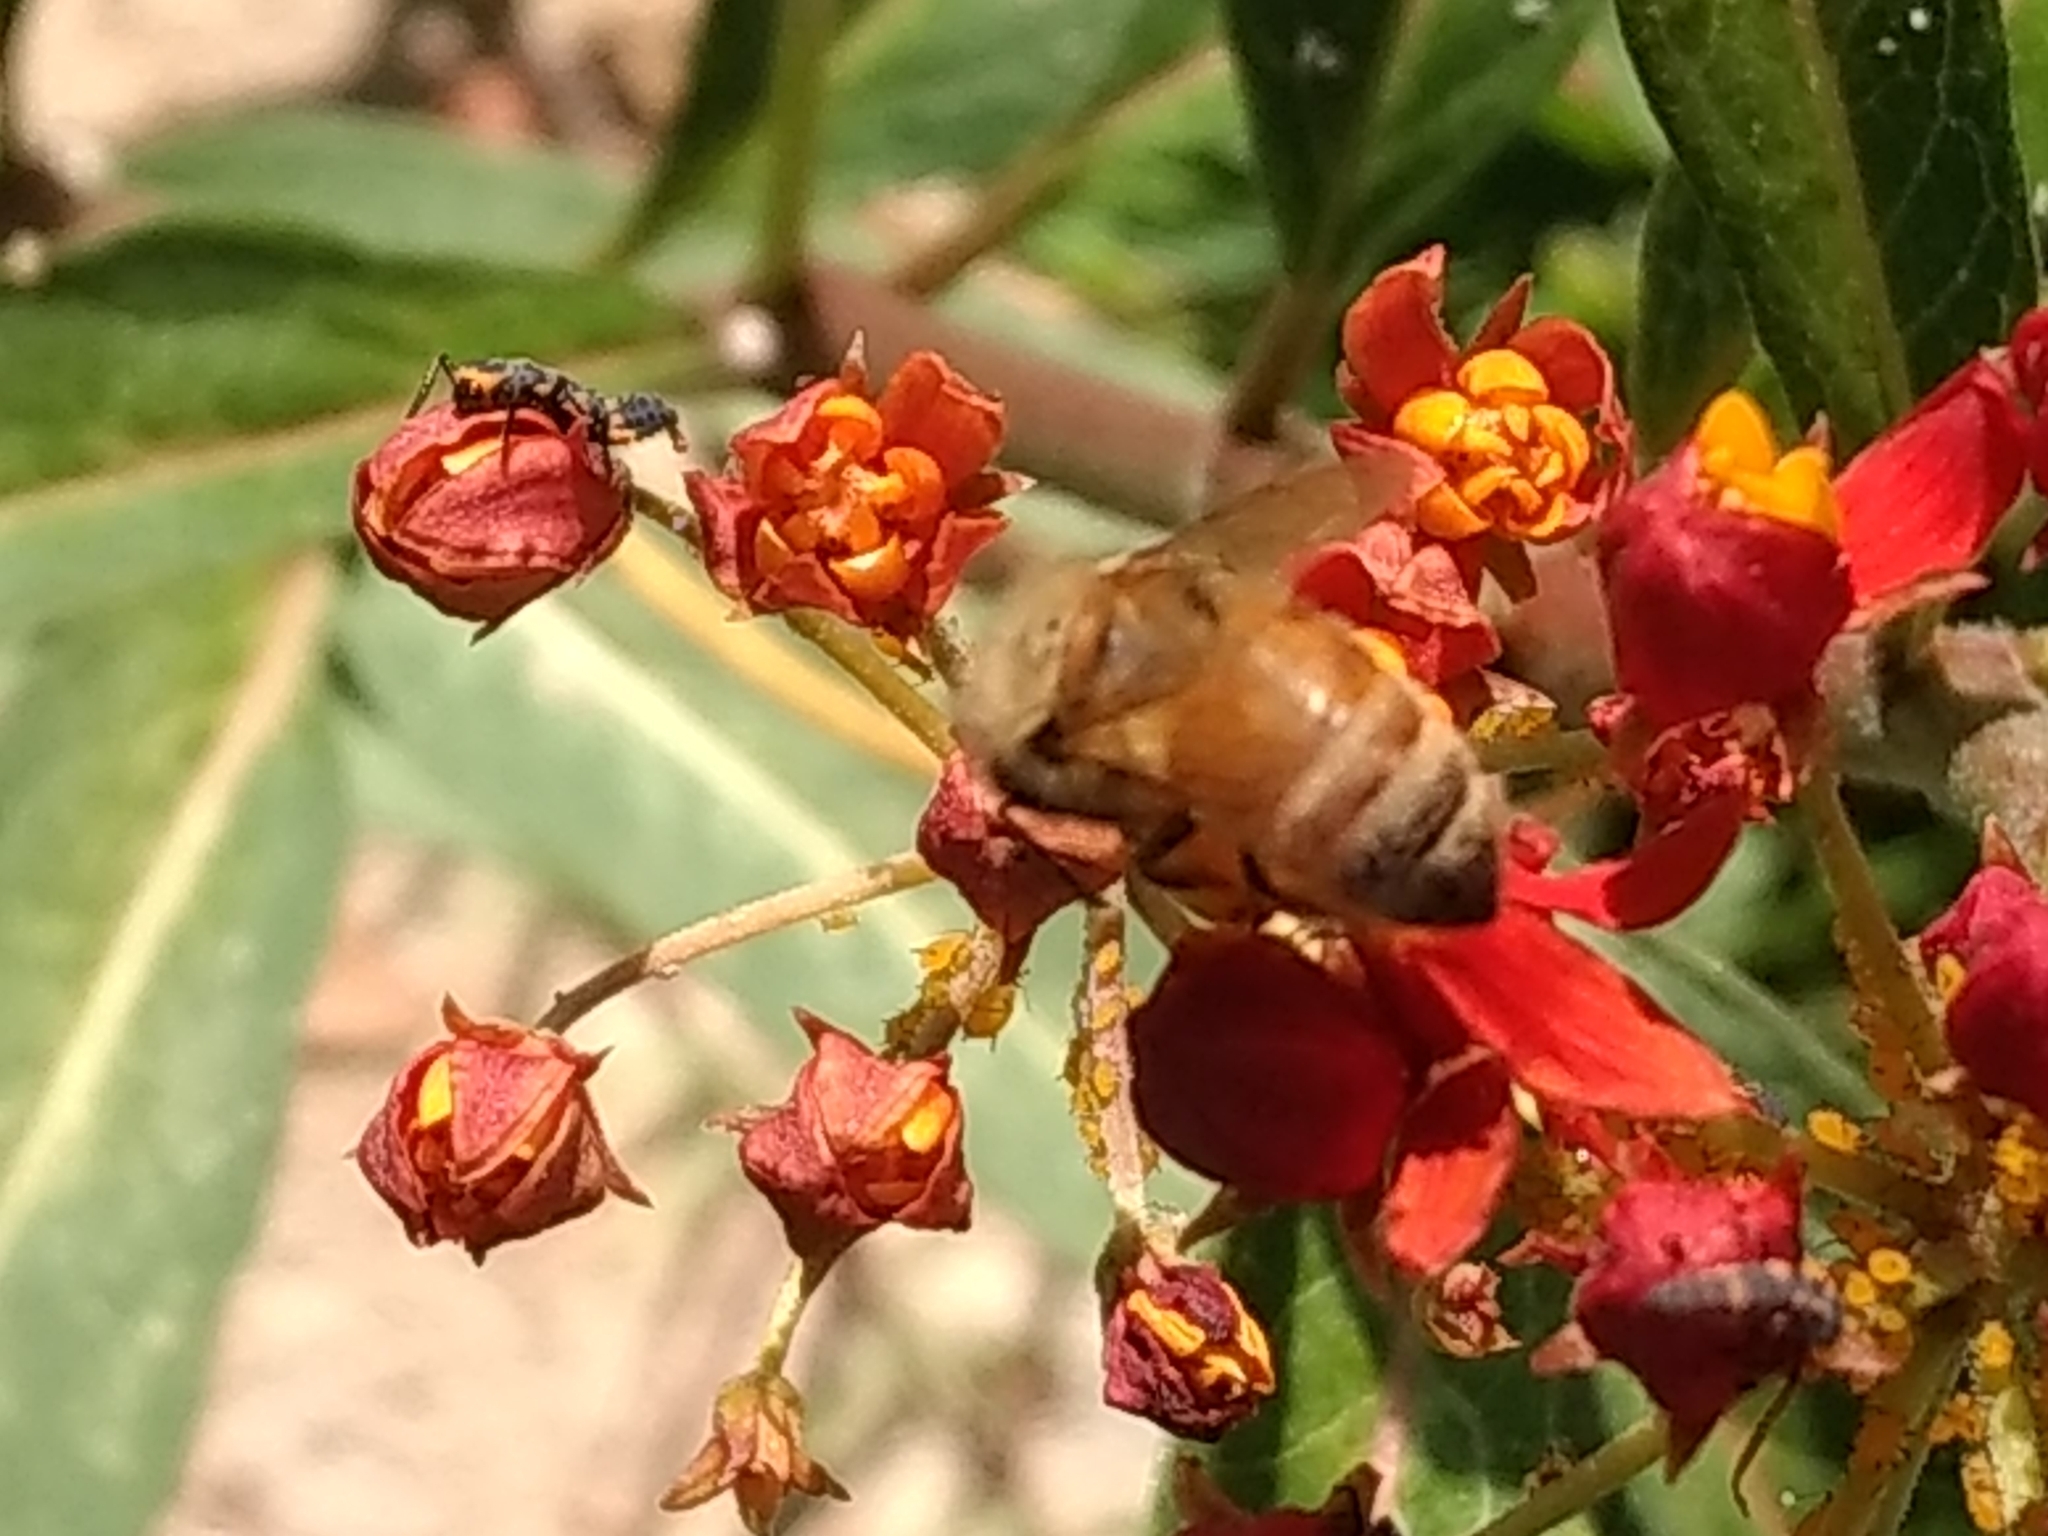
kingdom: Animalia
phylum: Arthropoda
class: Insecta
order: Hymenoptera
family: Apidae
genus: Apis
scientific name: Apis mellifera
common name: Honey bee
